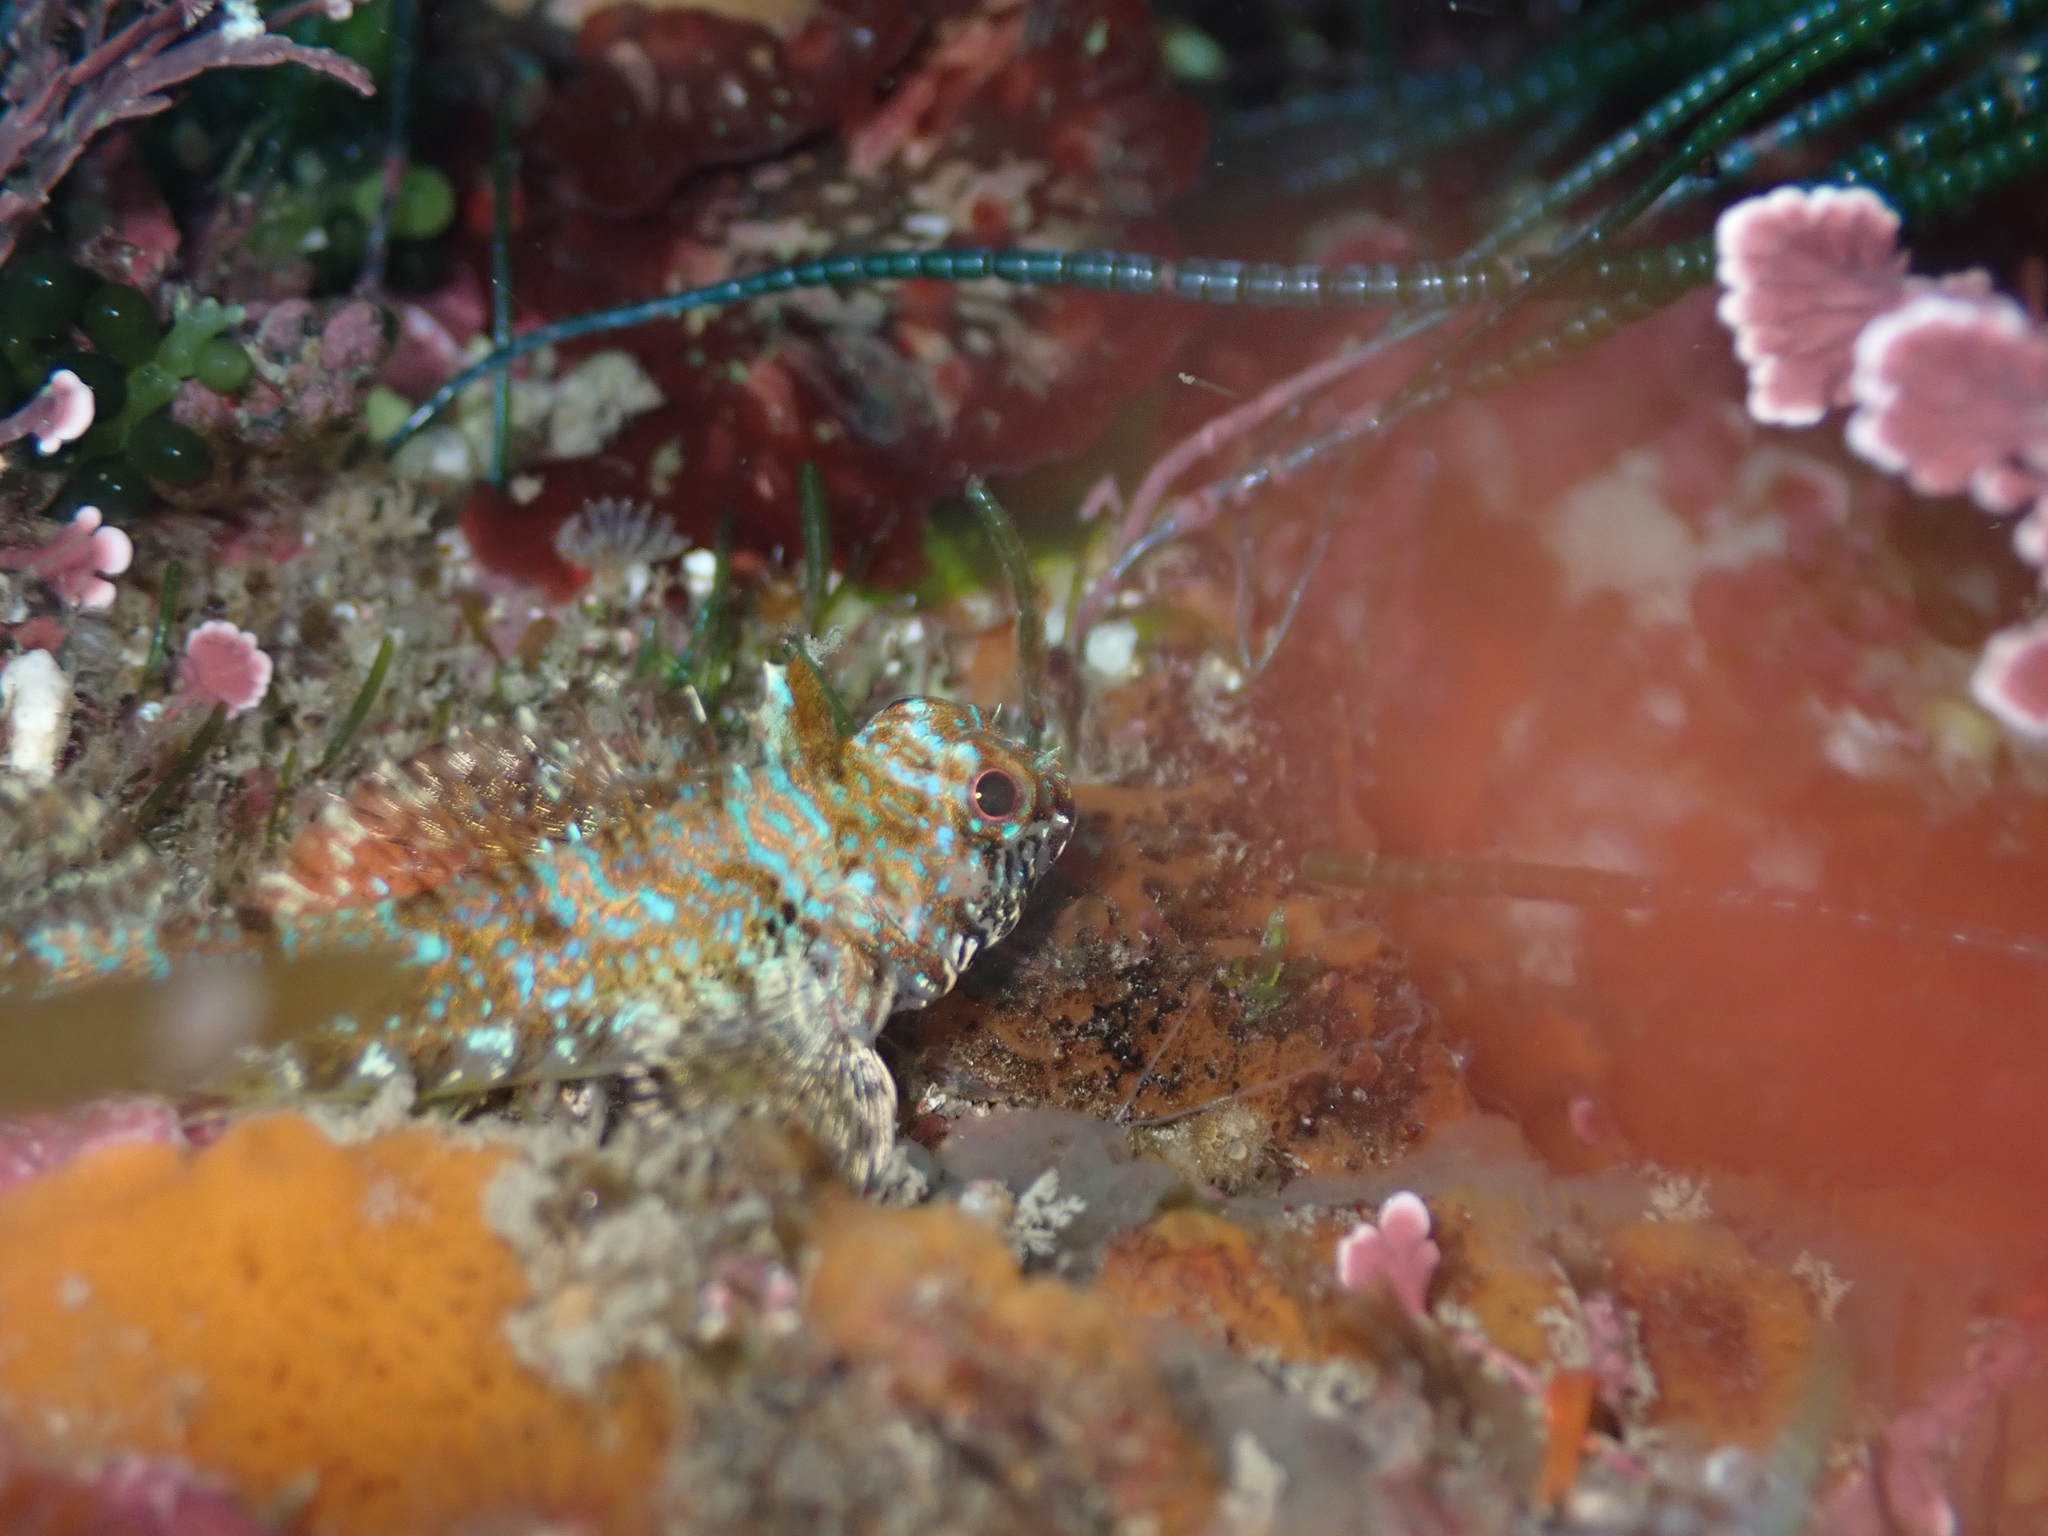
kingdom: Animalia
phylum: Chordata
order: Perciformes
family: Tripterygiidae
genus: Cryptichthys
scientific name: Cryptichthys jojettae
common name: Cryptic triplefin
